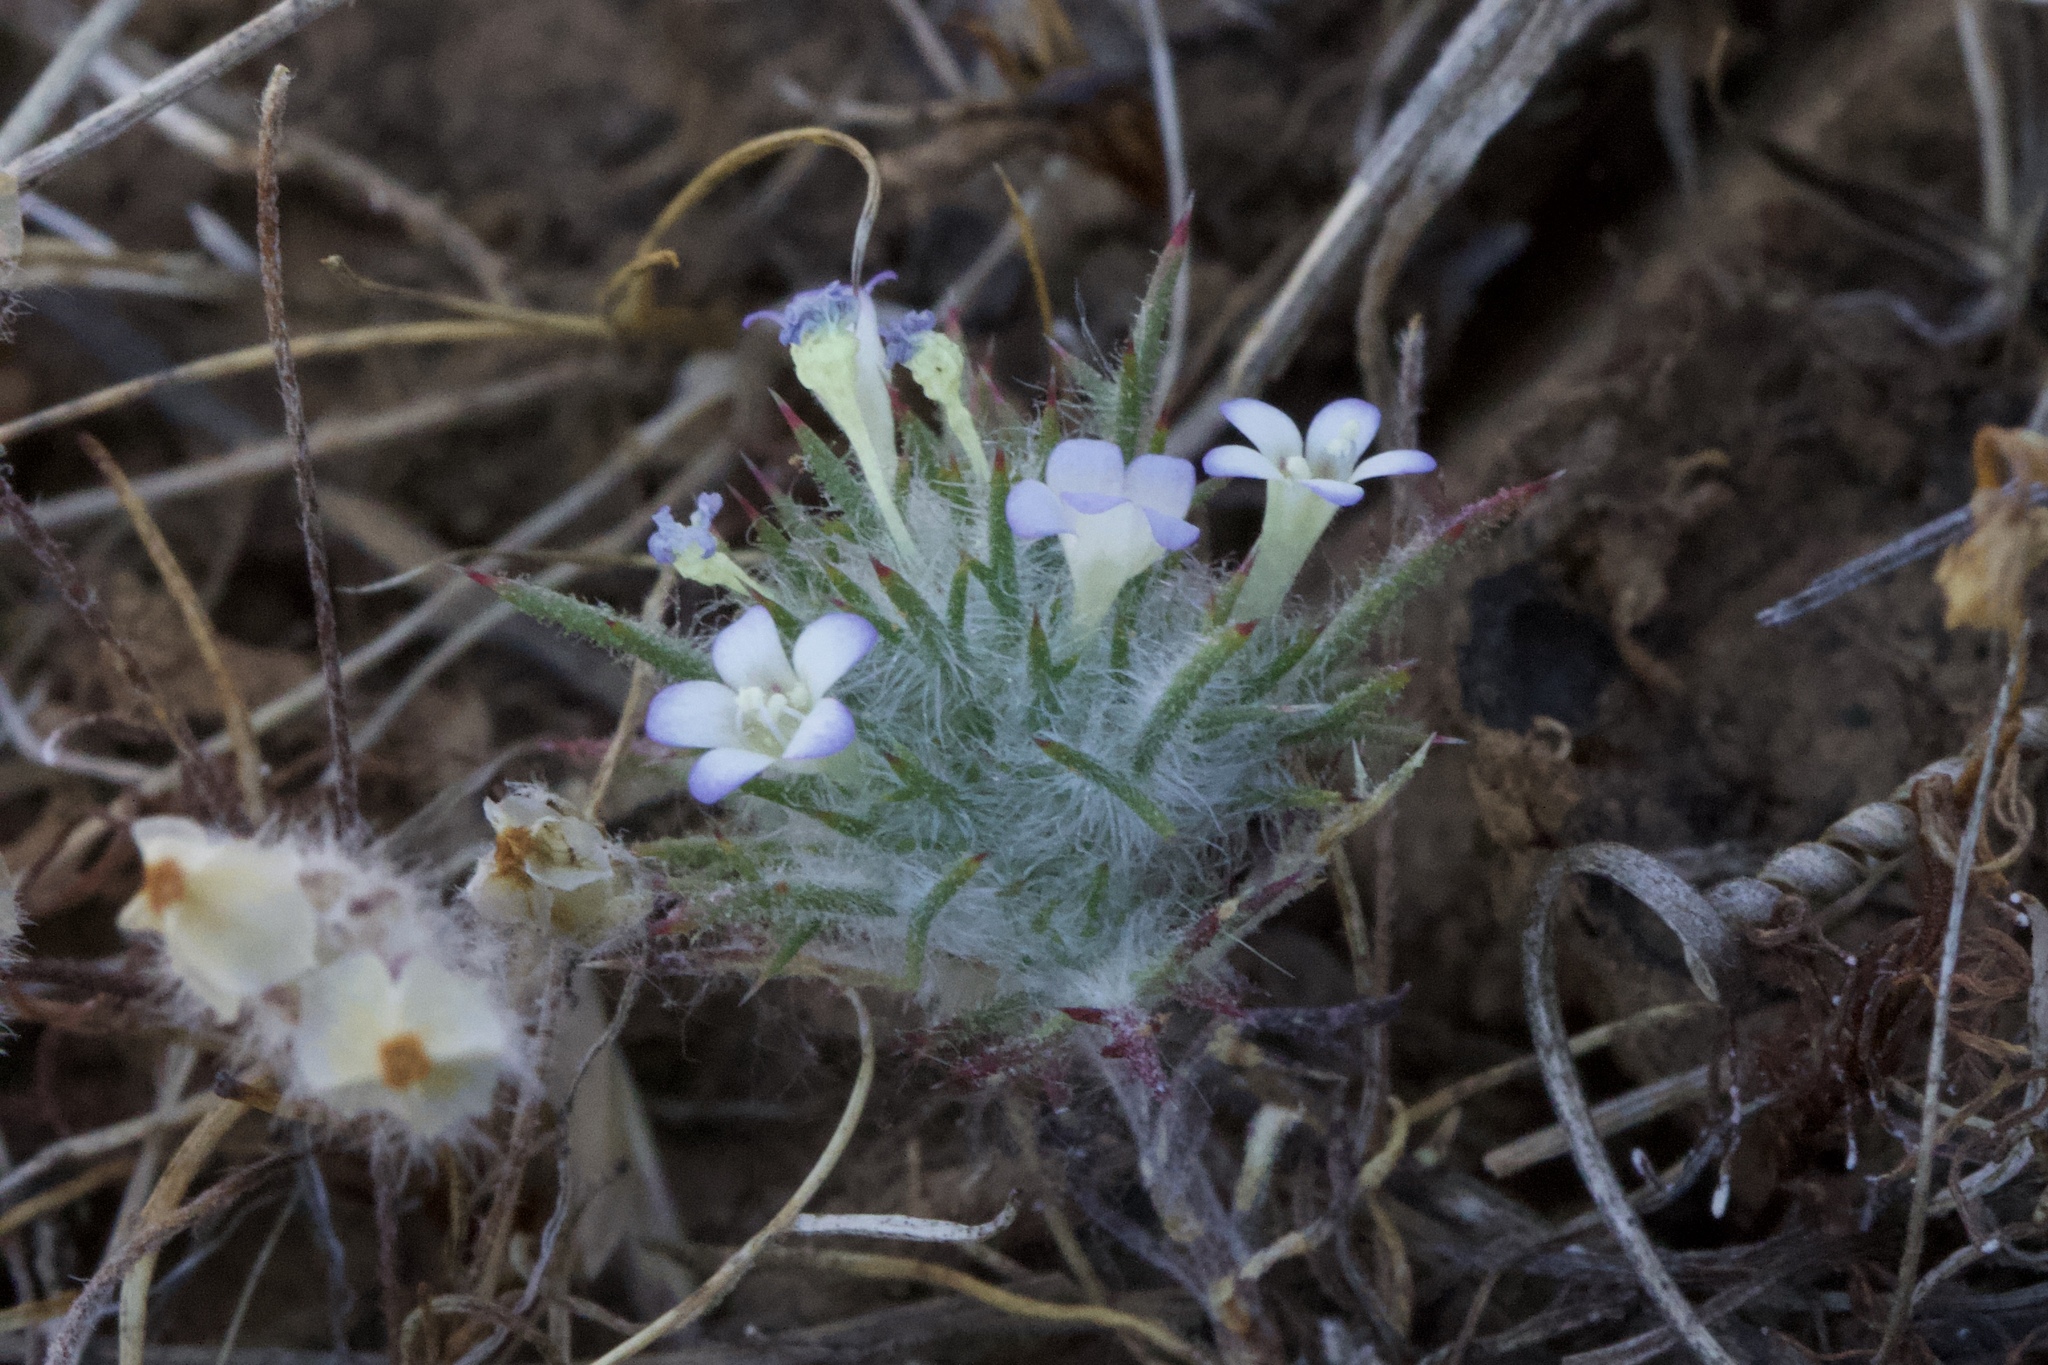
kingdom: Plantae
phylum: Tracheophyta
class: Magnoliopsida
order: Ericales
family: Polemoniaceae
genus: Navarretia
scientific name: Navarretia heterandra
